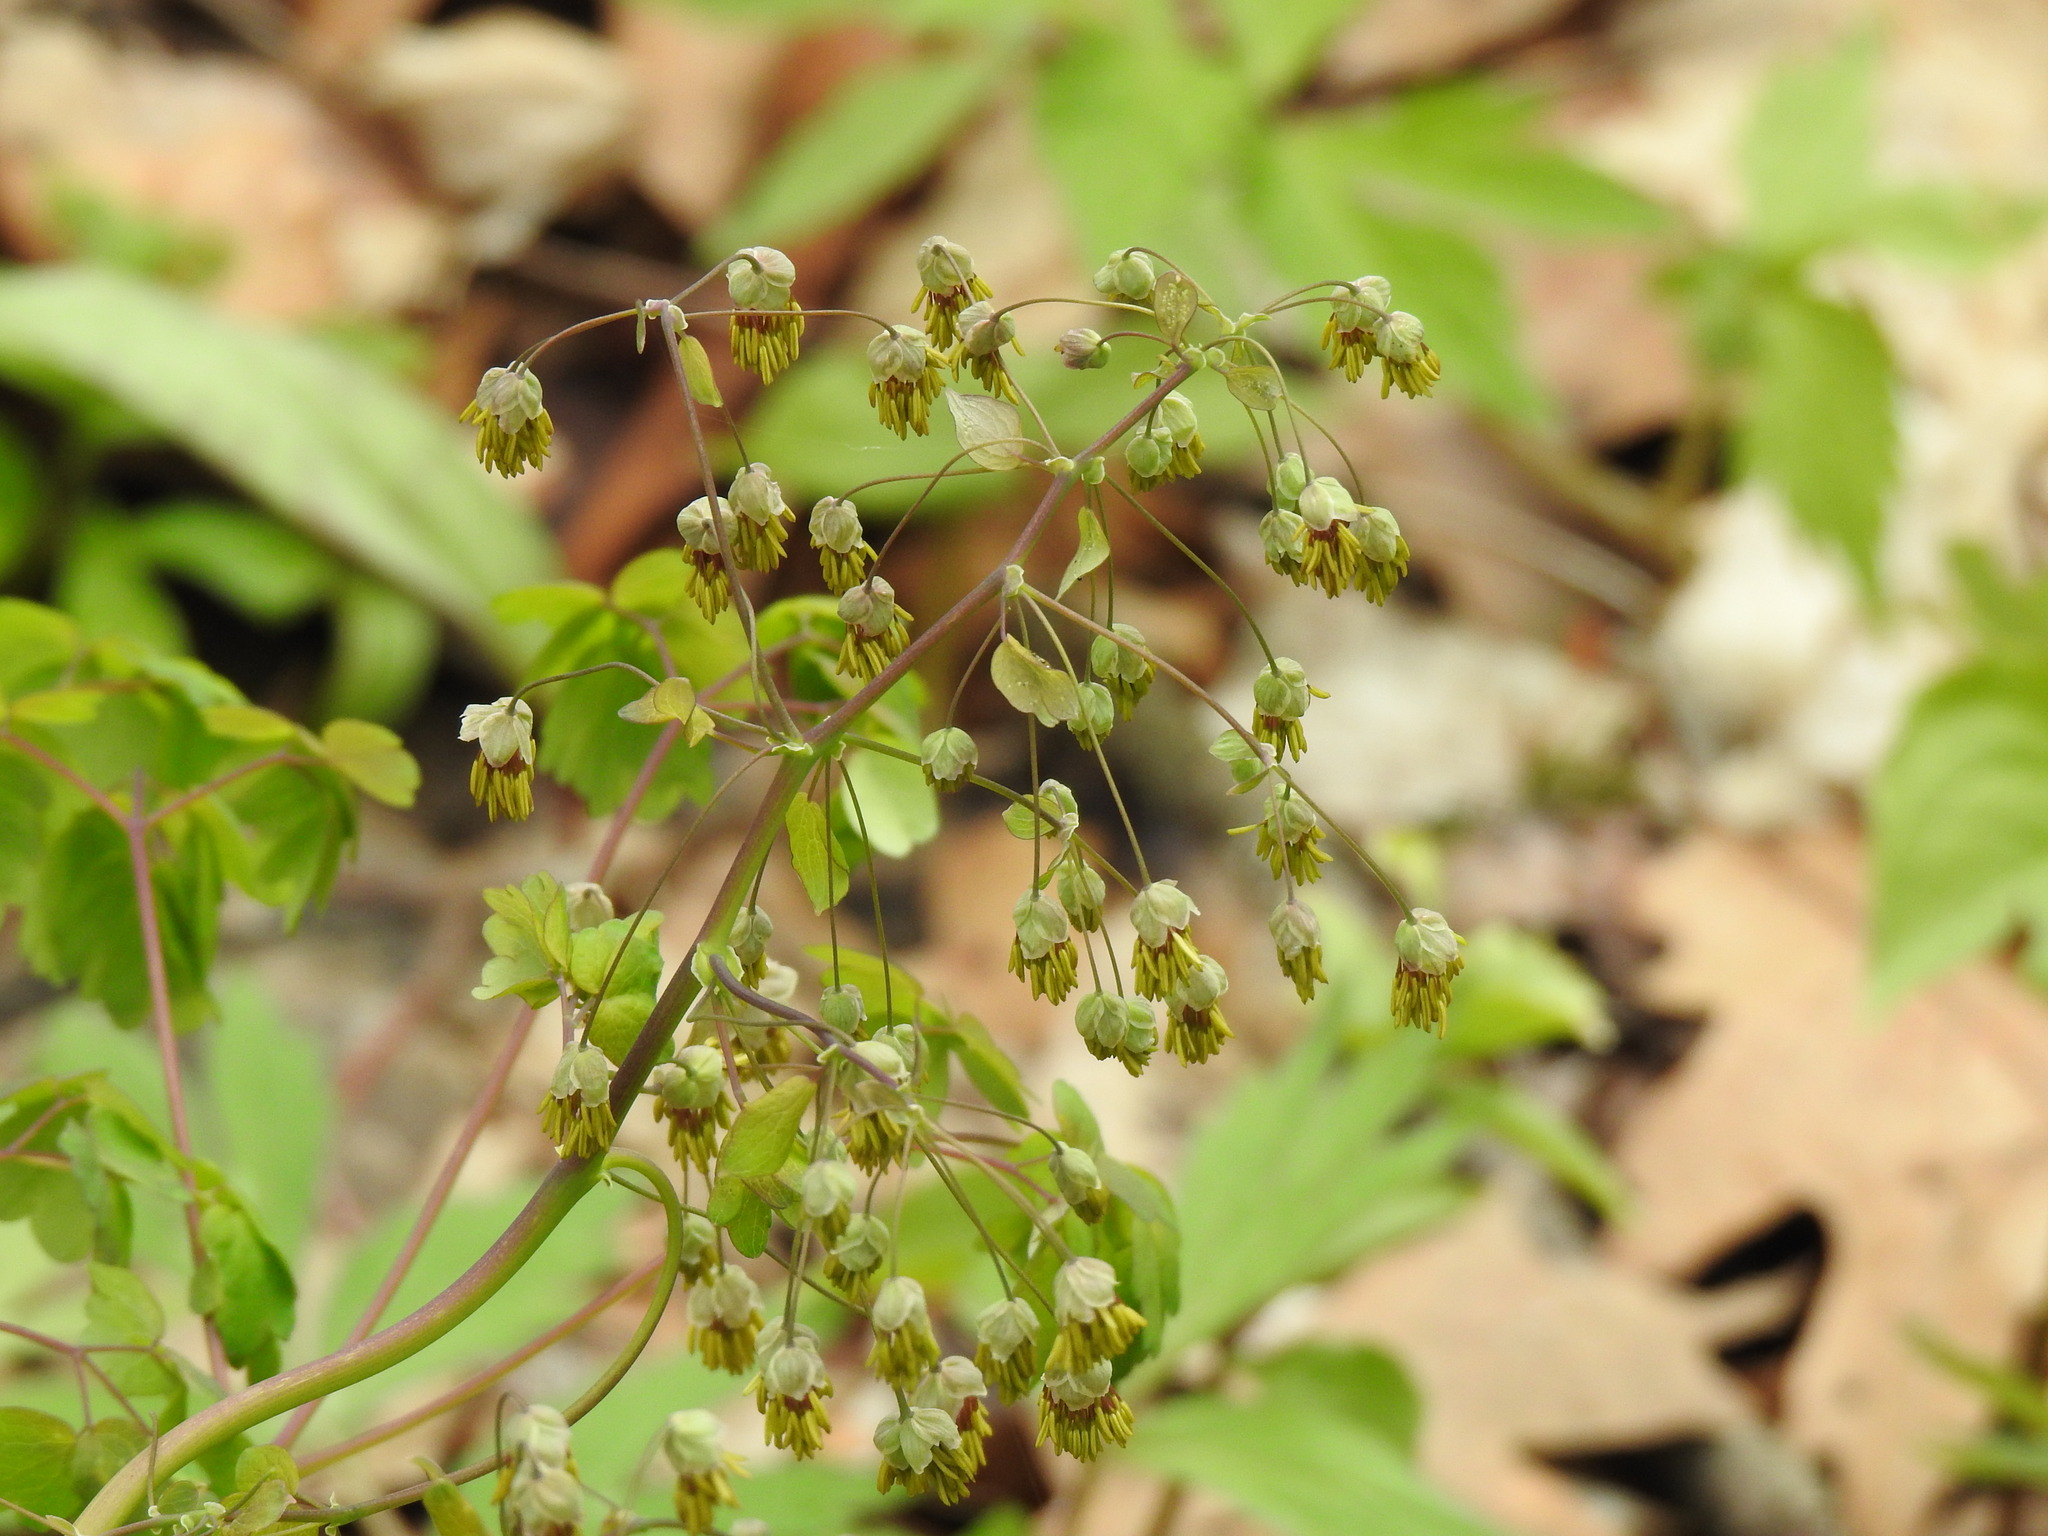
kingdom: Plantae
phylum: Tracheophyta
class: Magnoliopsida
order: Ranunculales
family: Ranunculaceae
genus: Thalictrum
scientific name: Thalictrum dioicum
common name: Early meadow-rue
